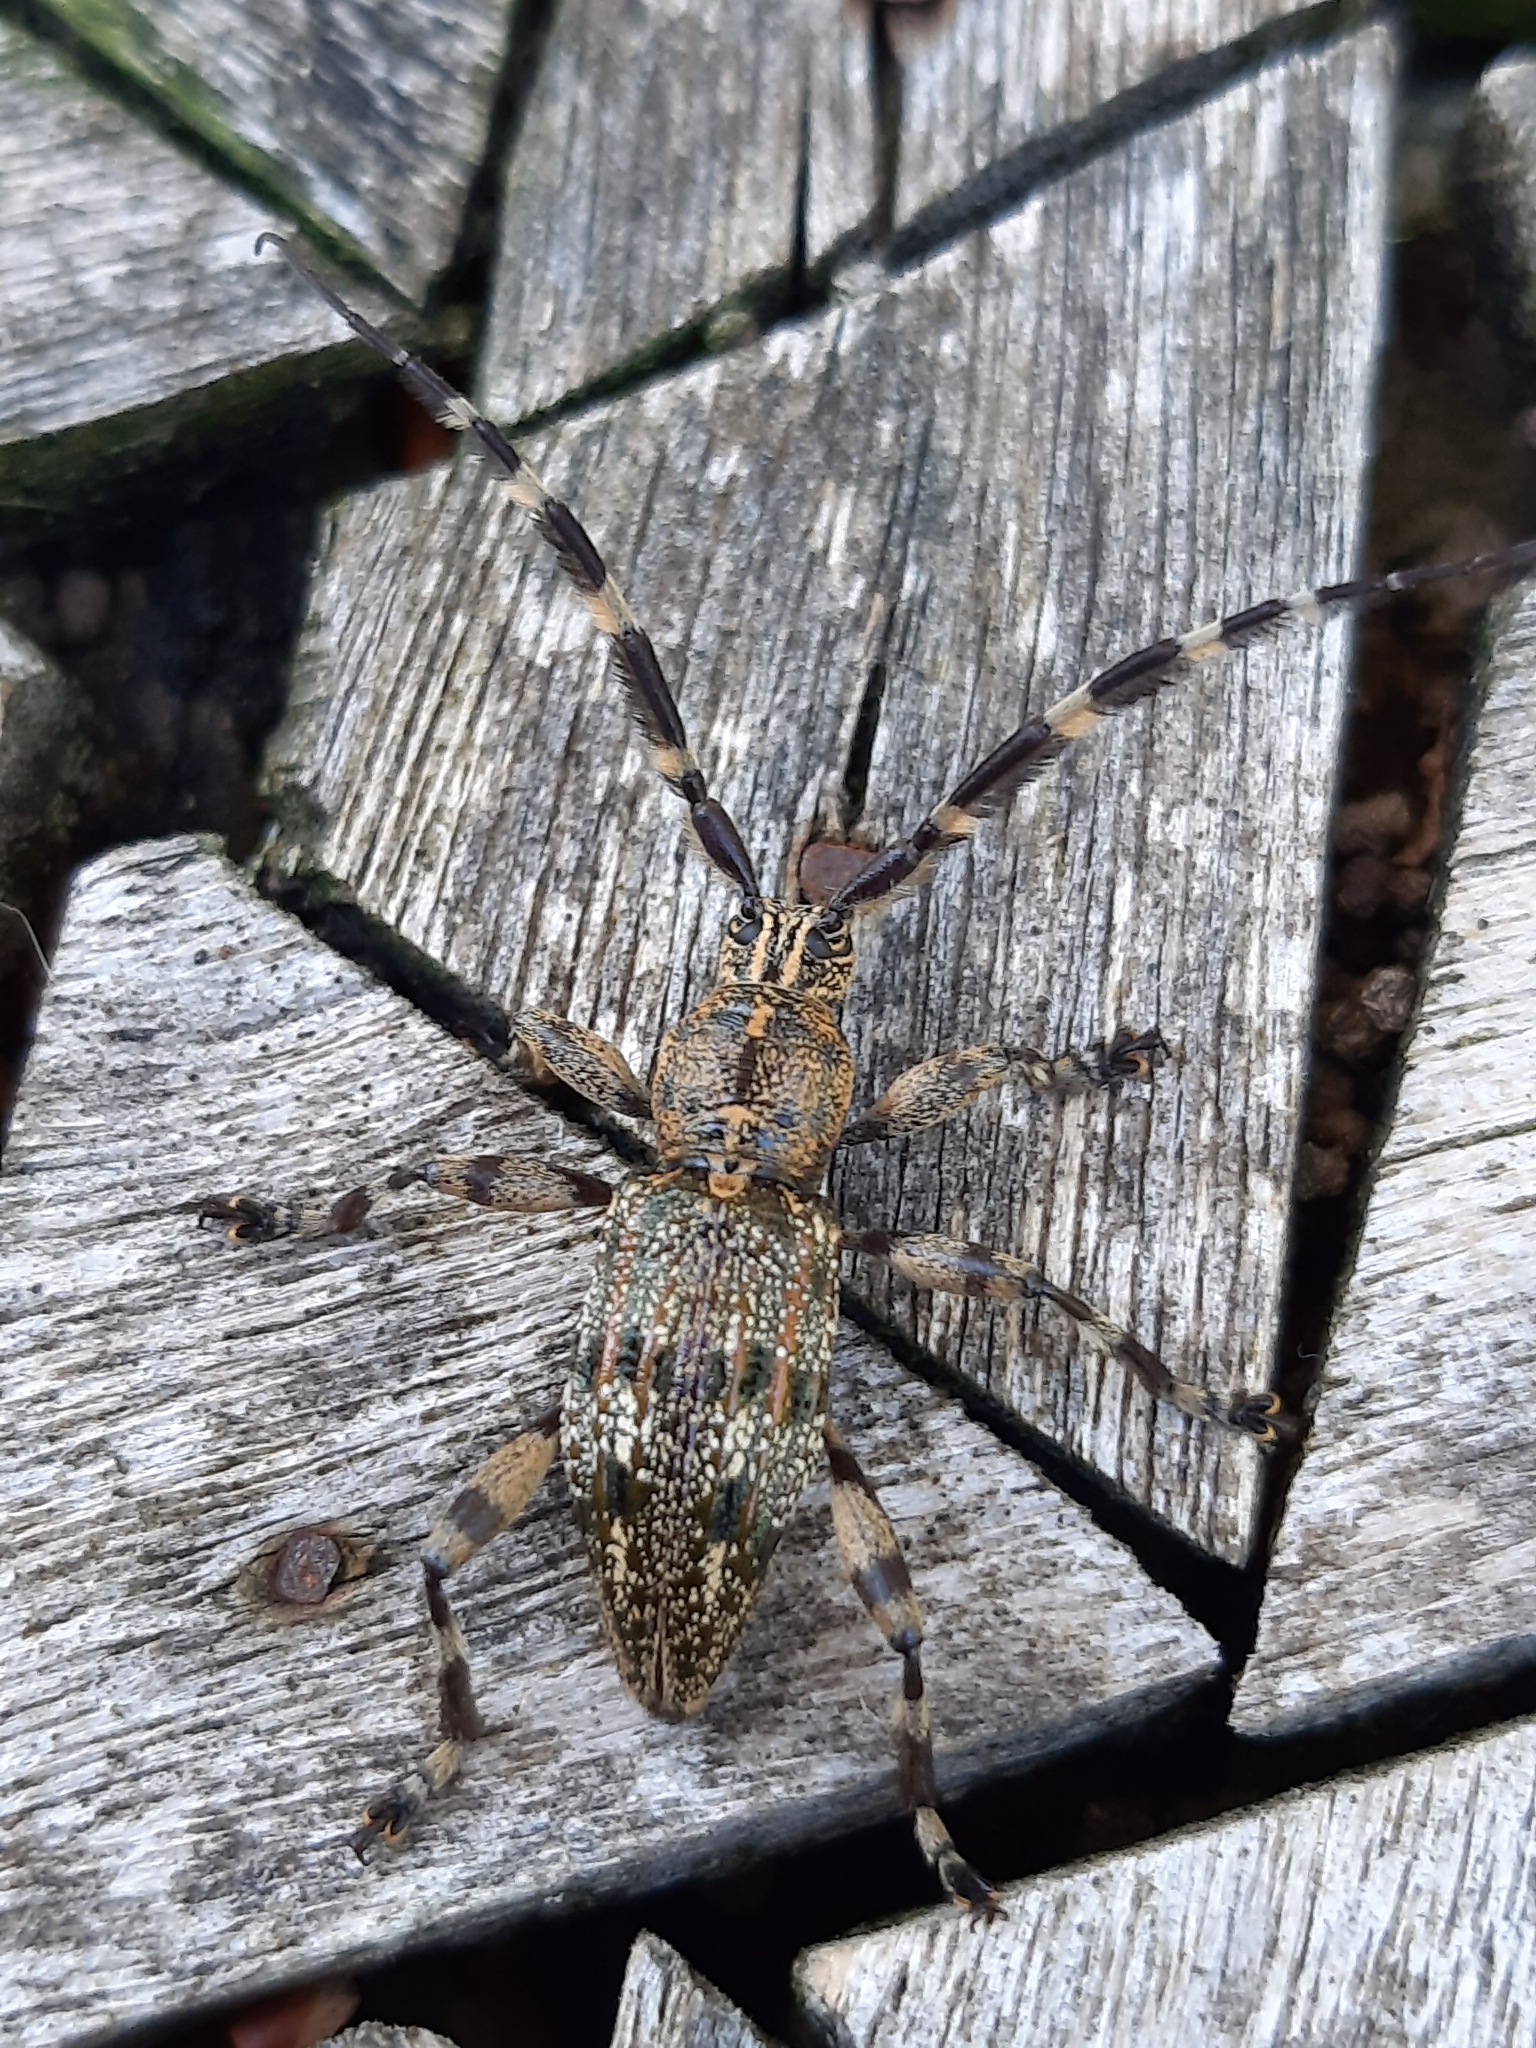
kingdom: Animalia
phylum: Arthropoda
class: Insecta
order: Coleoptera
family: Cerambycidae
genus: Hexatricha
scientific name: Hexatricha pulverulenta
